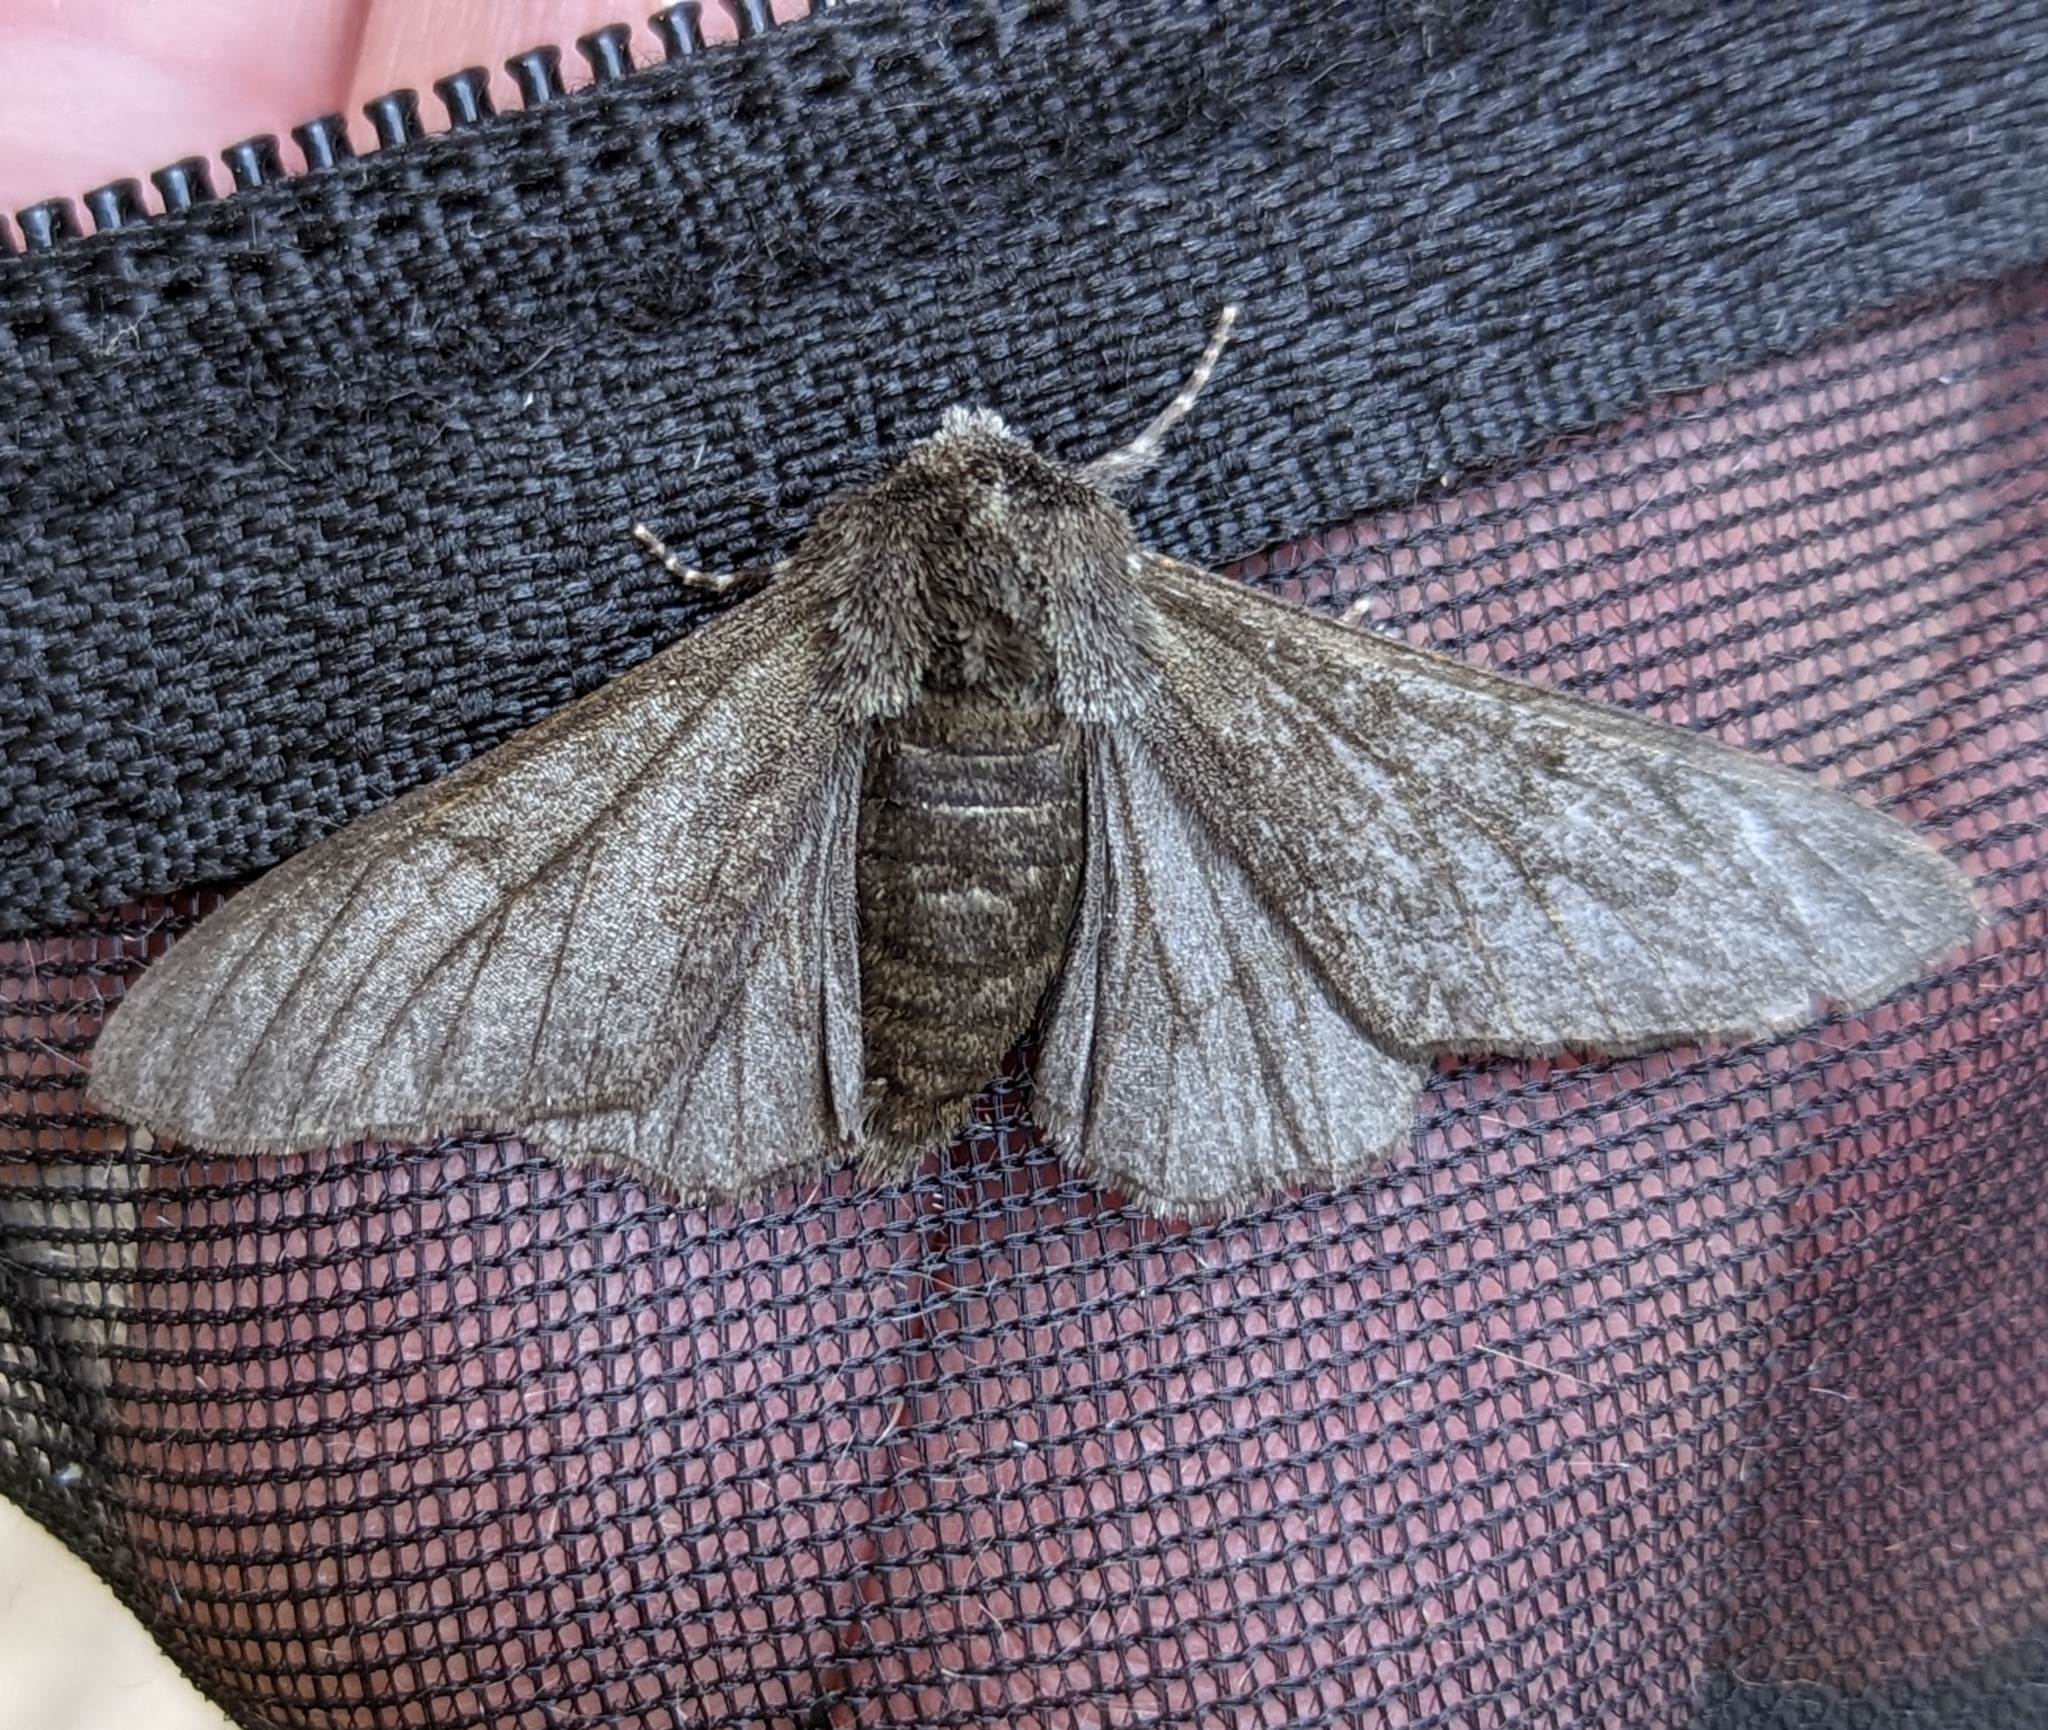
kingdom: Animalia
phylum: Arthropoda
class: Insecta
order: Lepidoptera
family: Geometridae
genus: Biston
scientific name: Biston betularia
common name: Peppered moth
